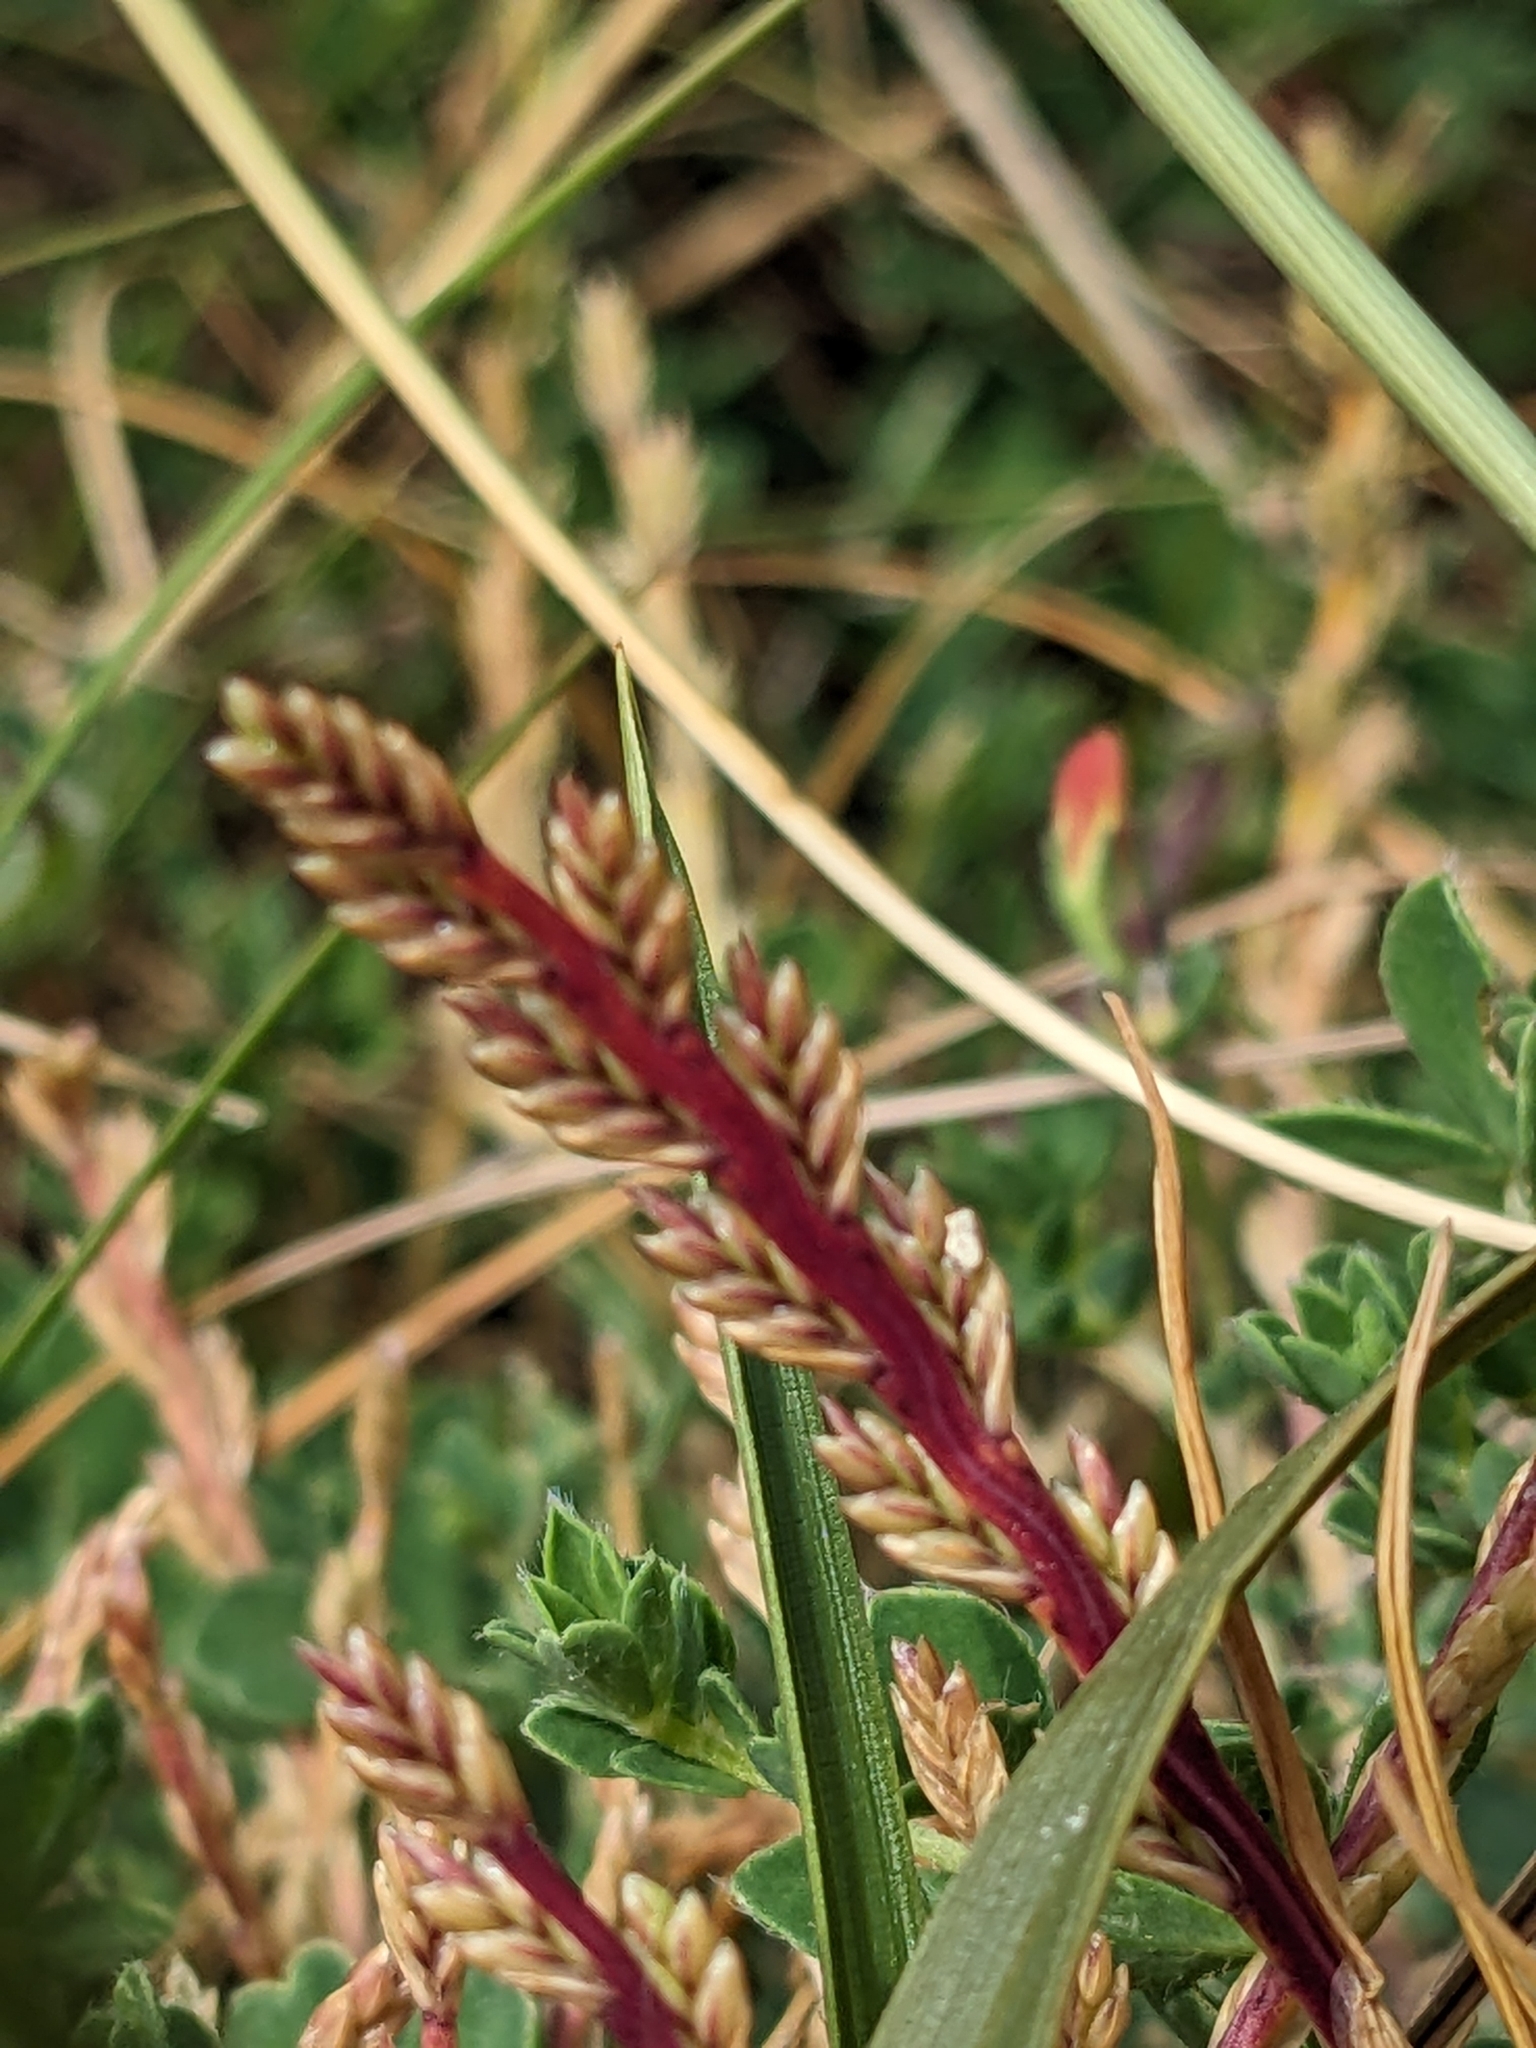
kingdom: Plantae
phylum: Tracheophyta
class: Liliopsida
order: Poales
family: Poaceae
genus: Catapodium
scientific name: Catapodium marinum
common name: Sea fern-grass
